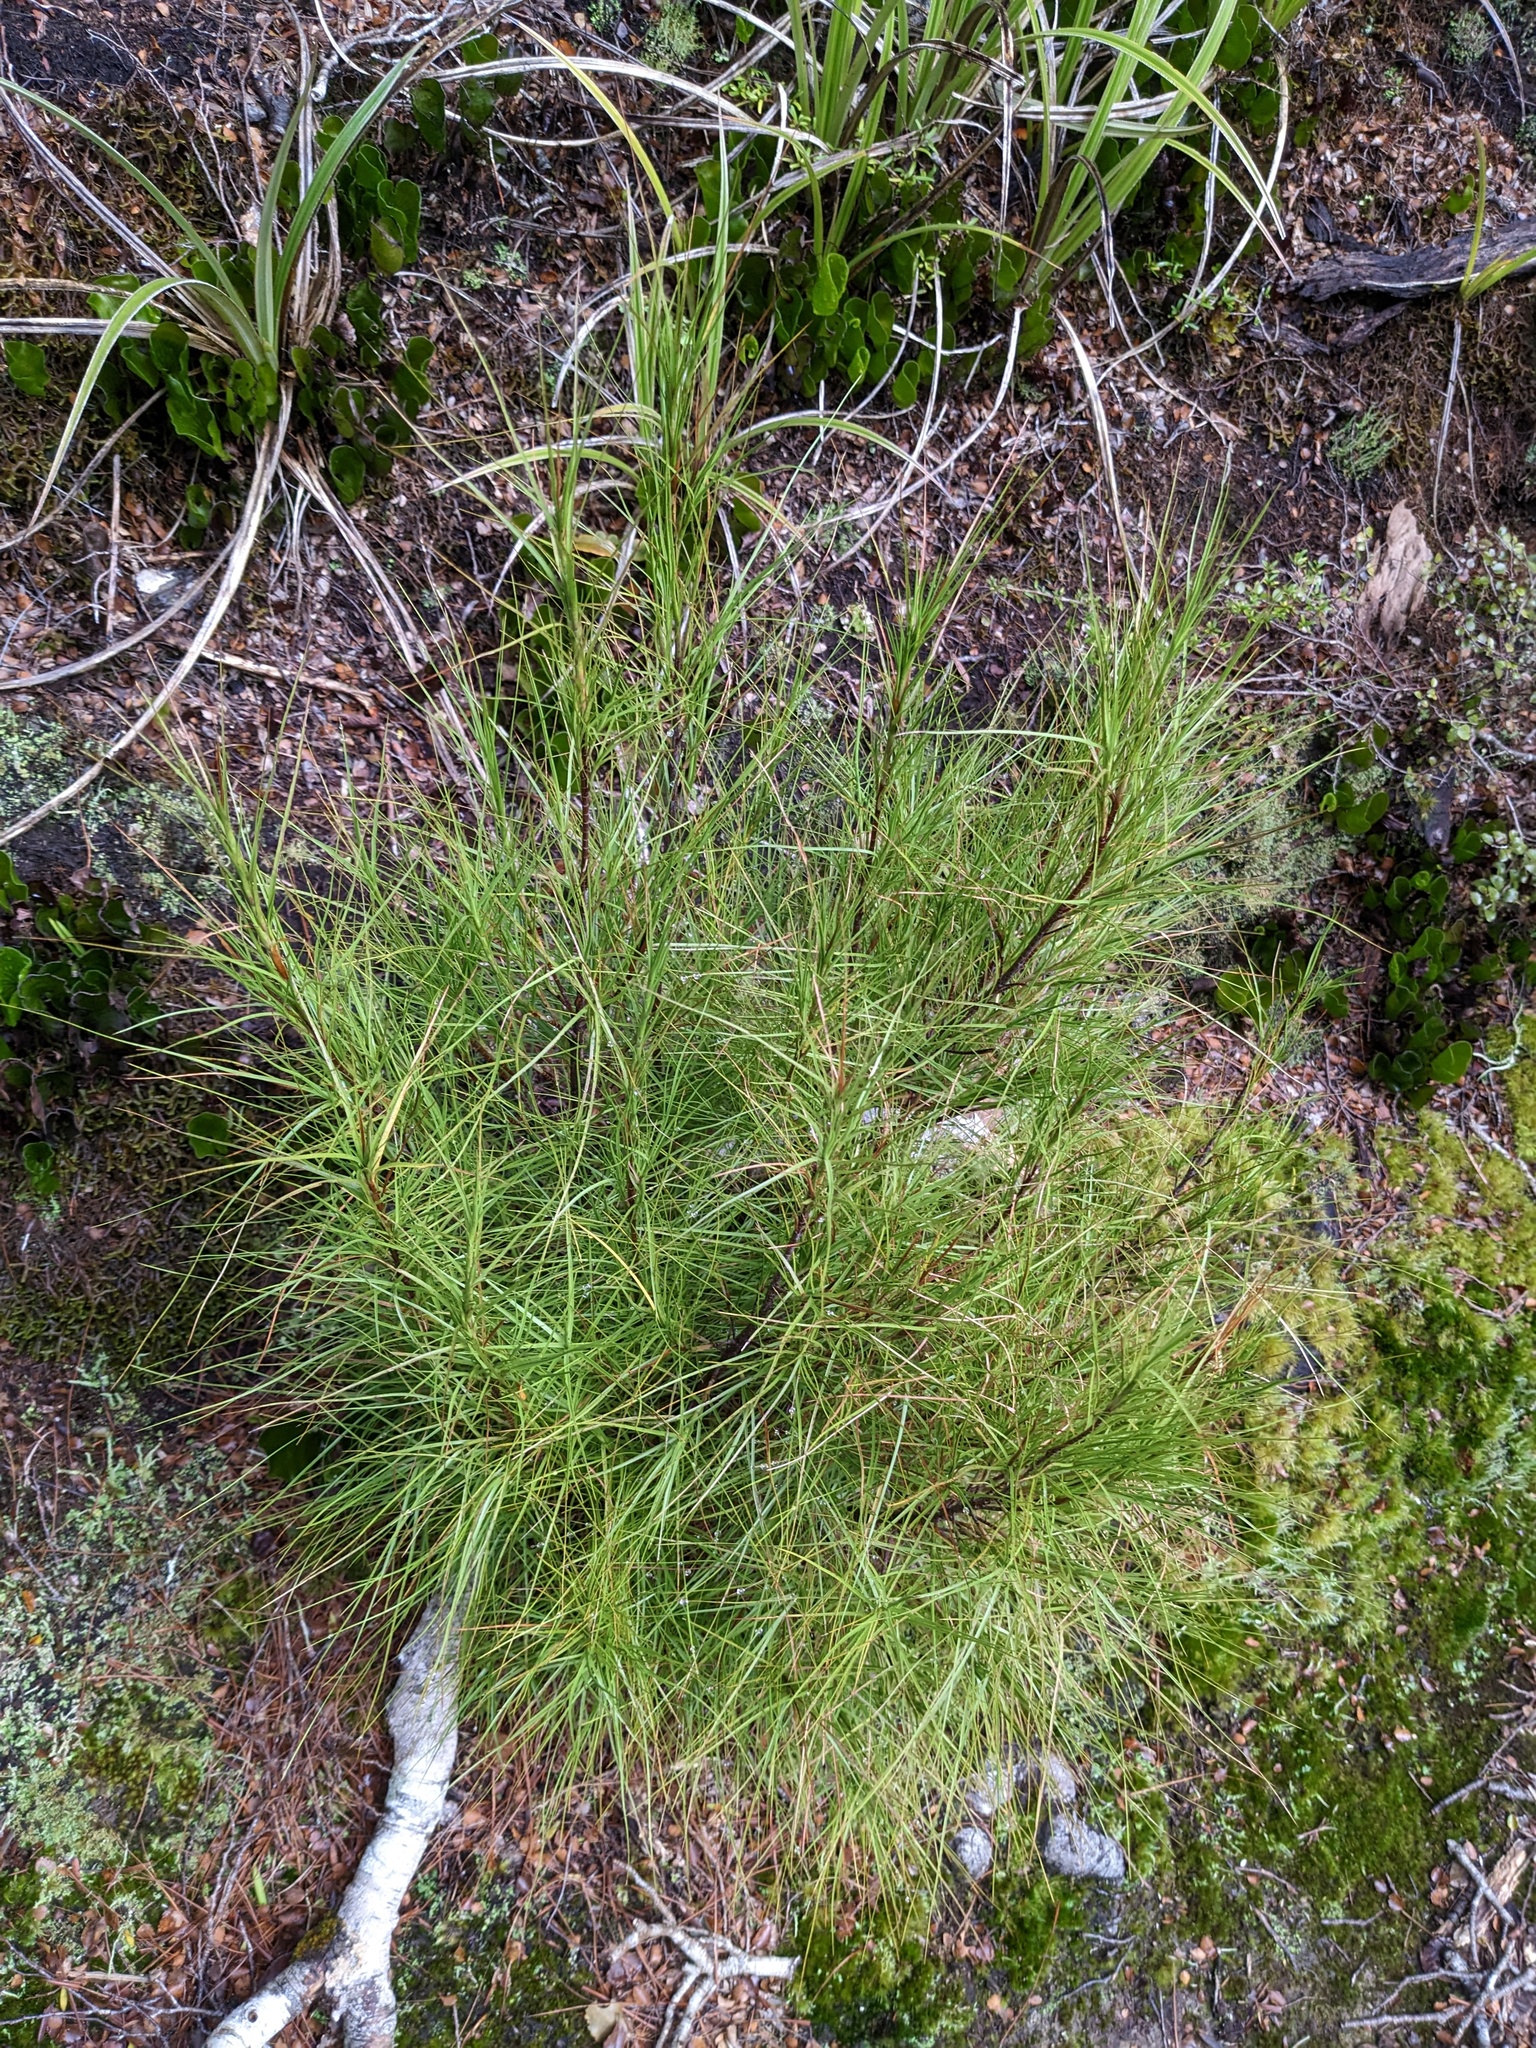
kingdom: Plantae
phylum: Tracheophyta
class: Magnoliopsida
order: Ericales
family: Ericaceae
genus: Dracophyllum
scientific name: Dracophyllum filifolium
